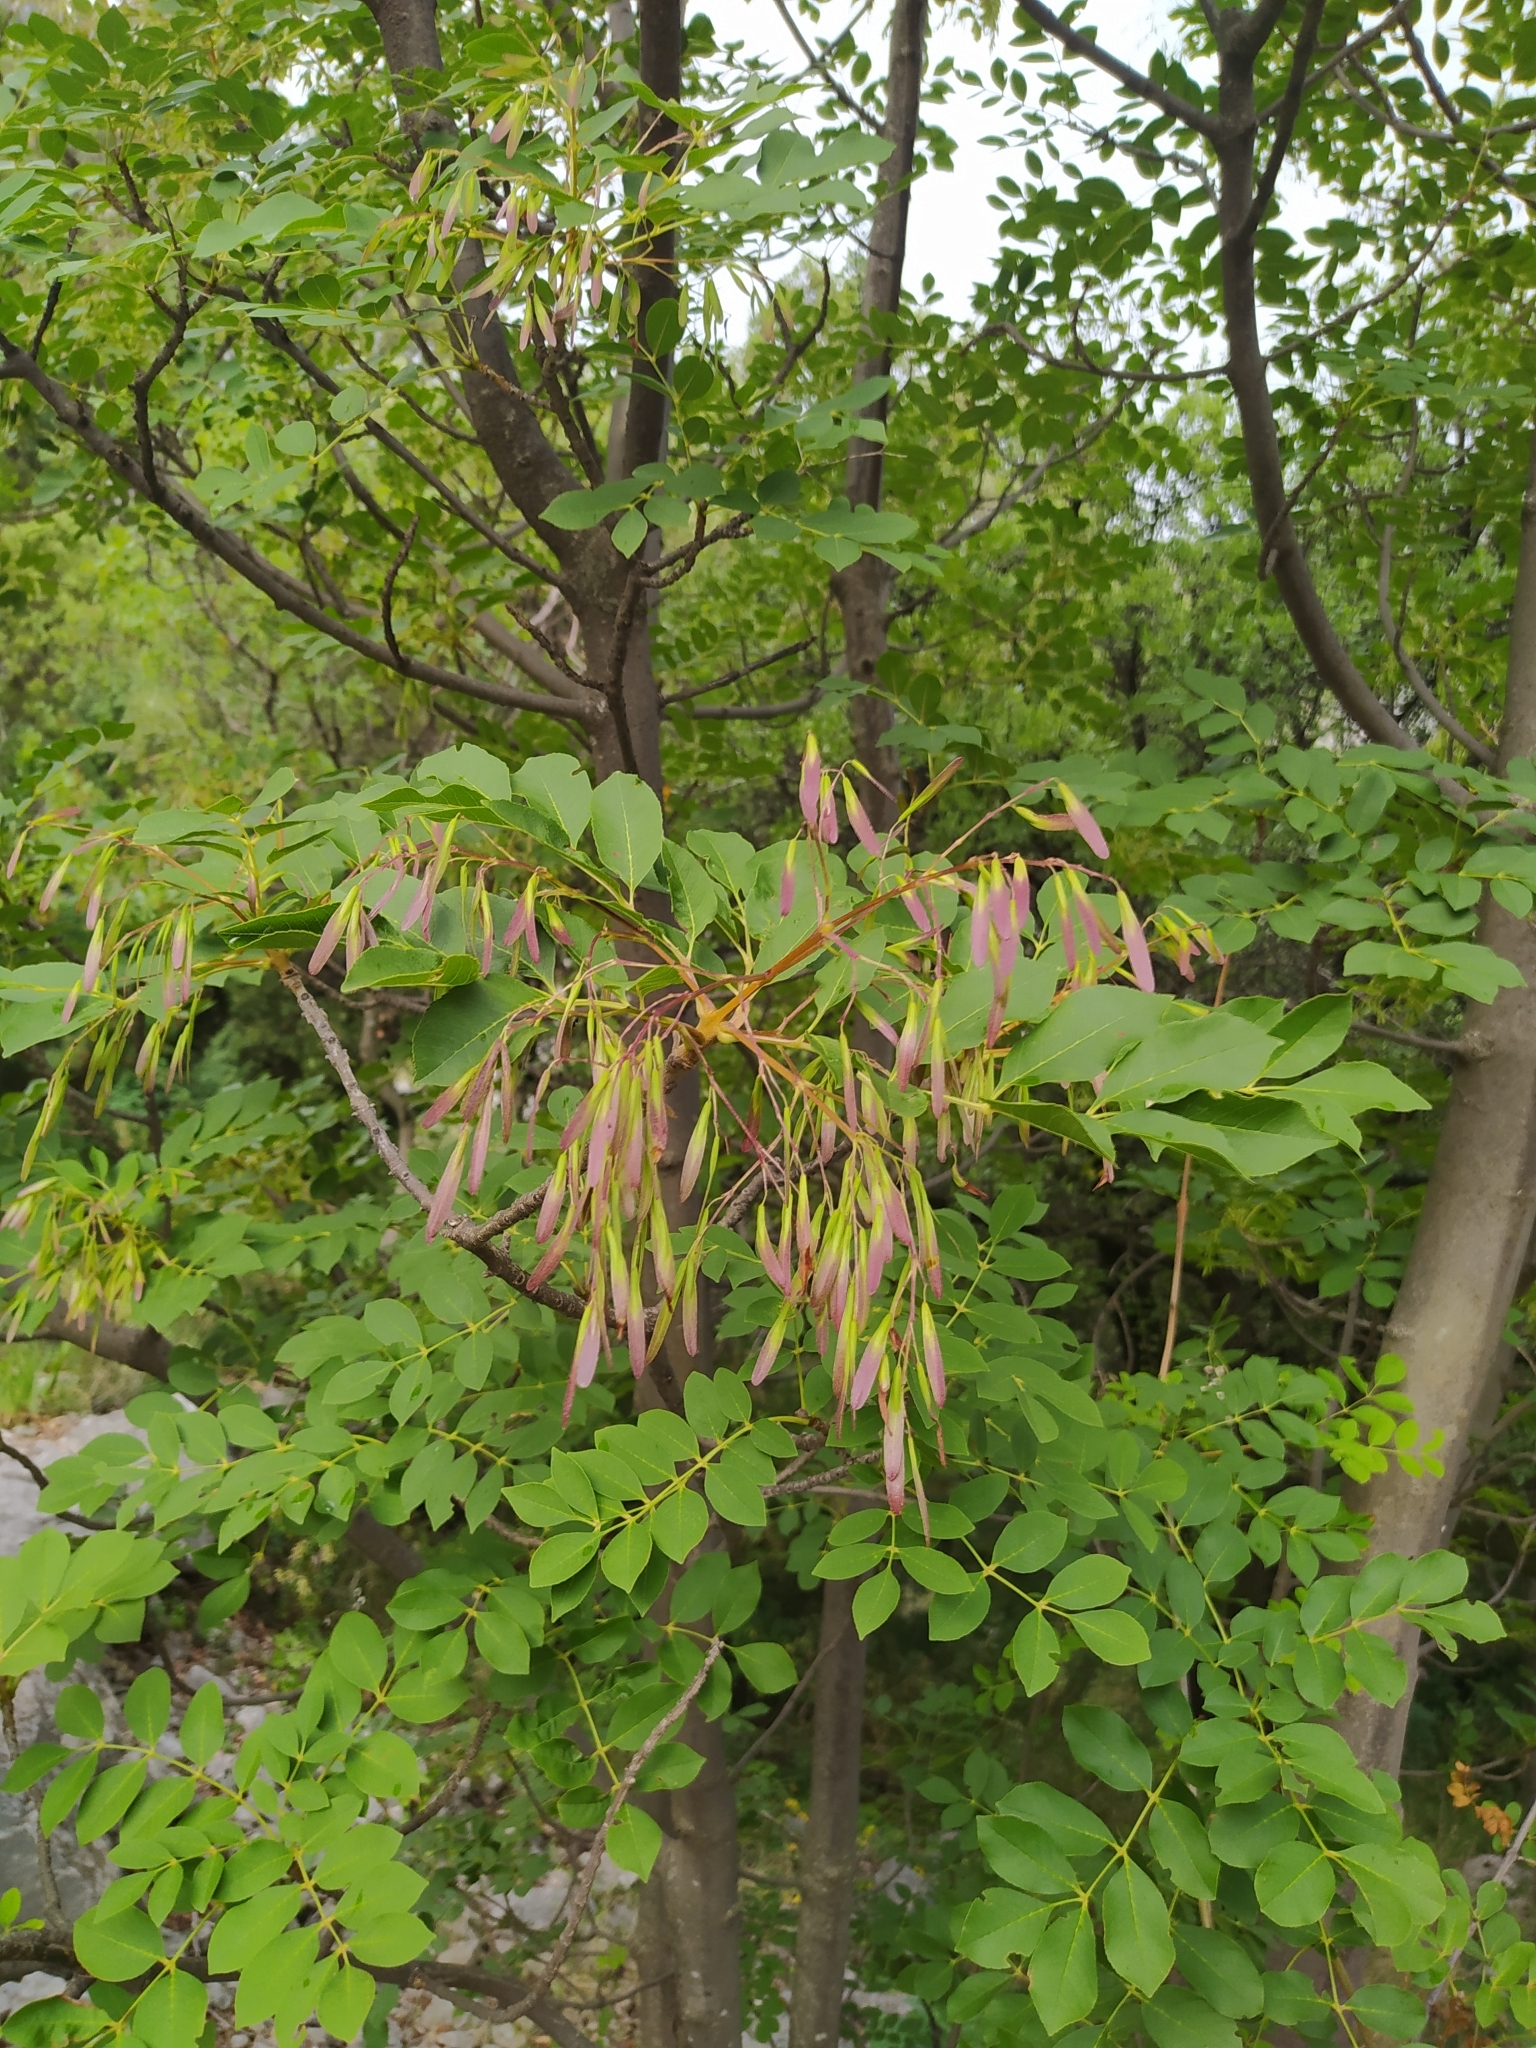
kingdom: Plantae
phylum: Tracheophyta
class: Magnoliopsida
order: Lamiales
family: Oleaceae
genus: Fraxinus
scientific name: Fraxinus ornus
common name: Manna ash
